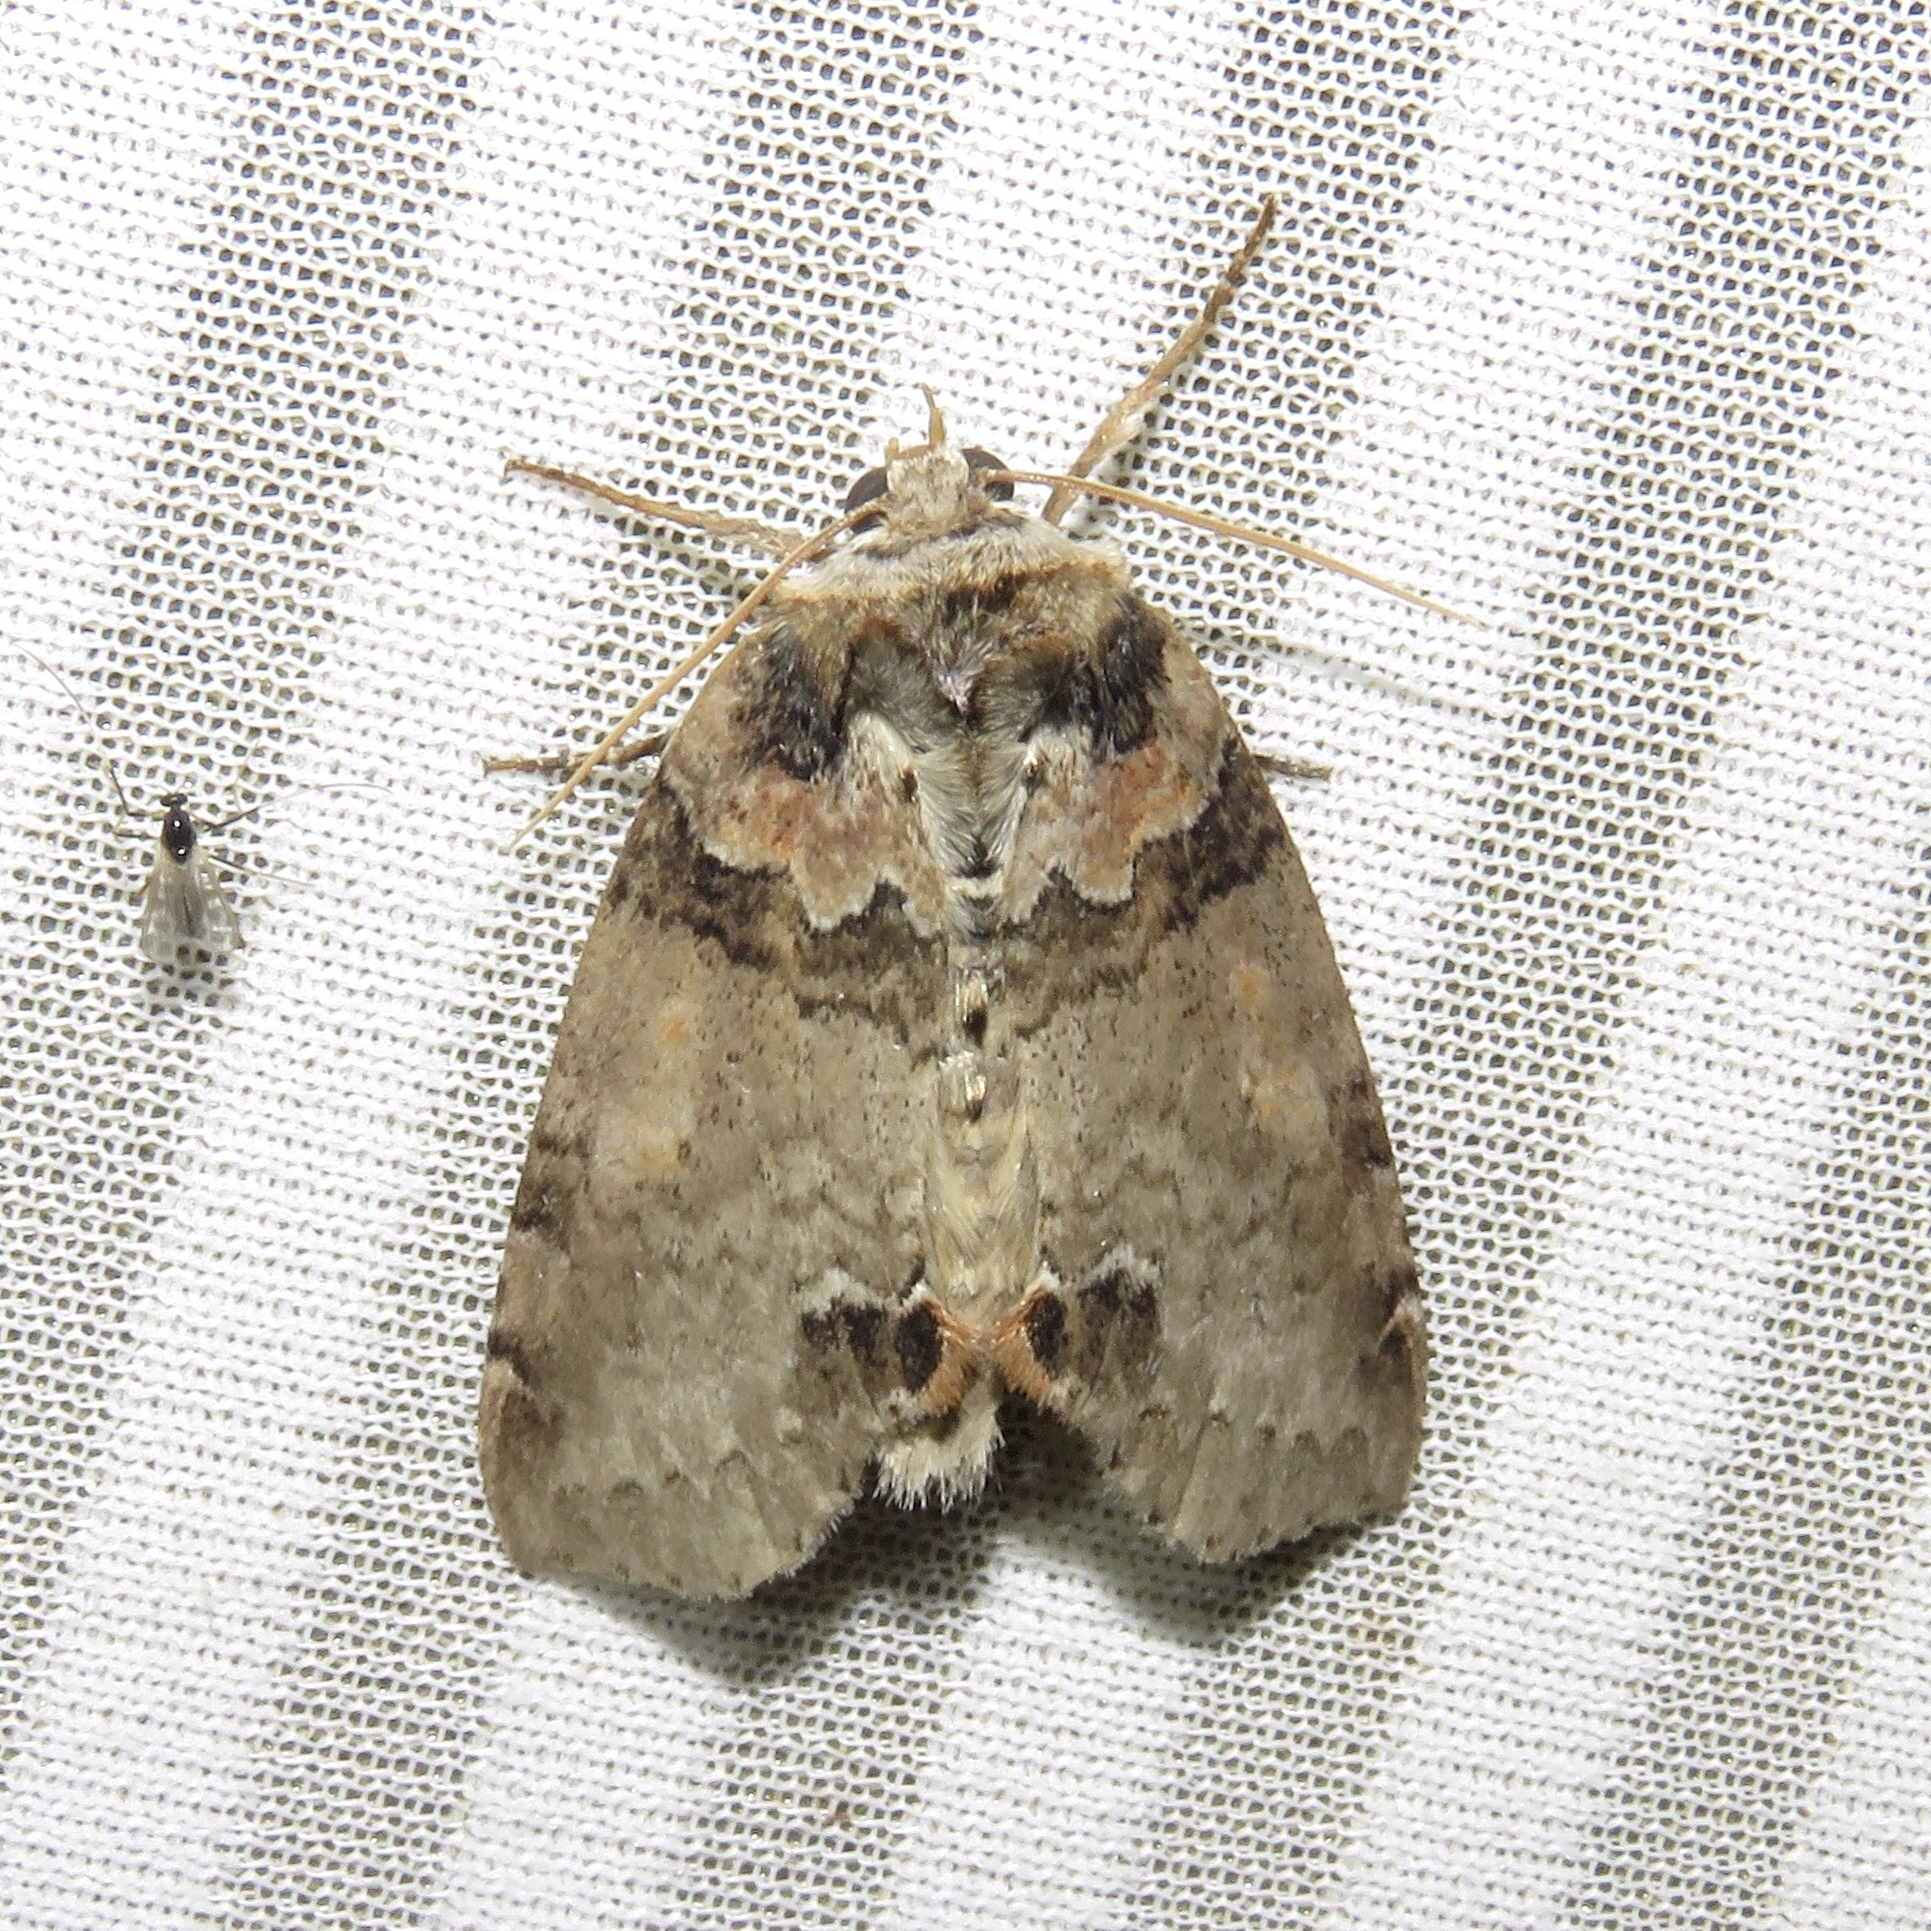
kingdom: Animalia
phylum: Arthropoda
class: Insecta
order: Lepidoptera
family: Drepanidae
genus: Pseudothyatira
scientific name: Pseudothyatira cymatophoroides
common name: Tufted thyatirid moth
